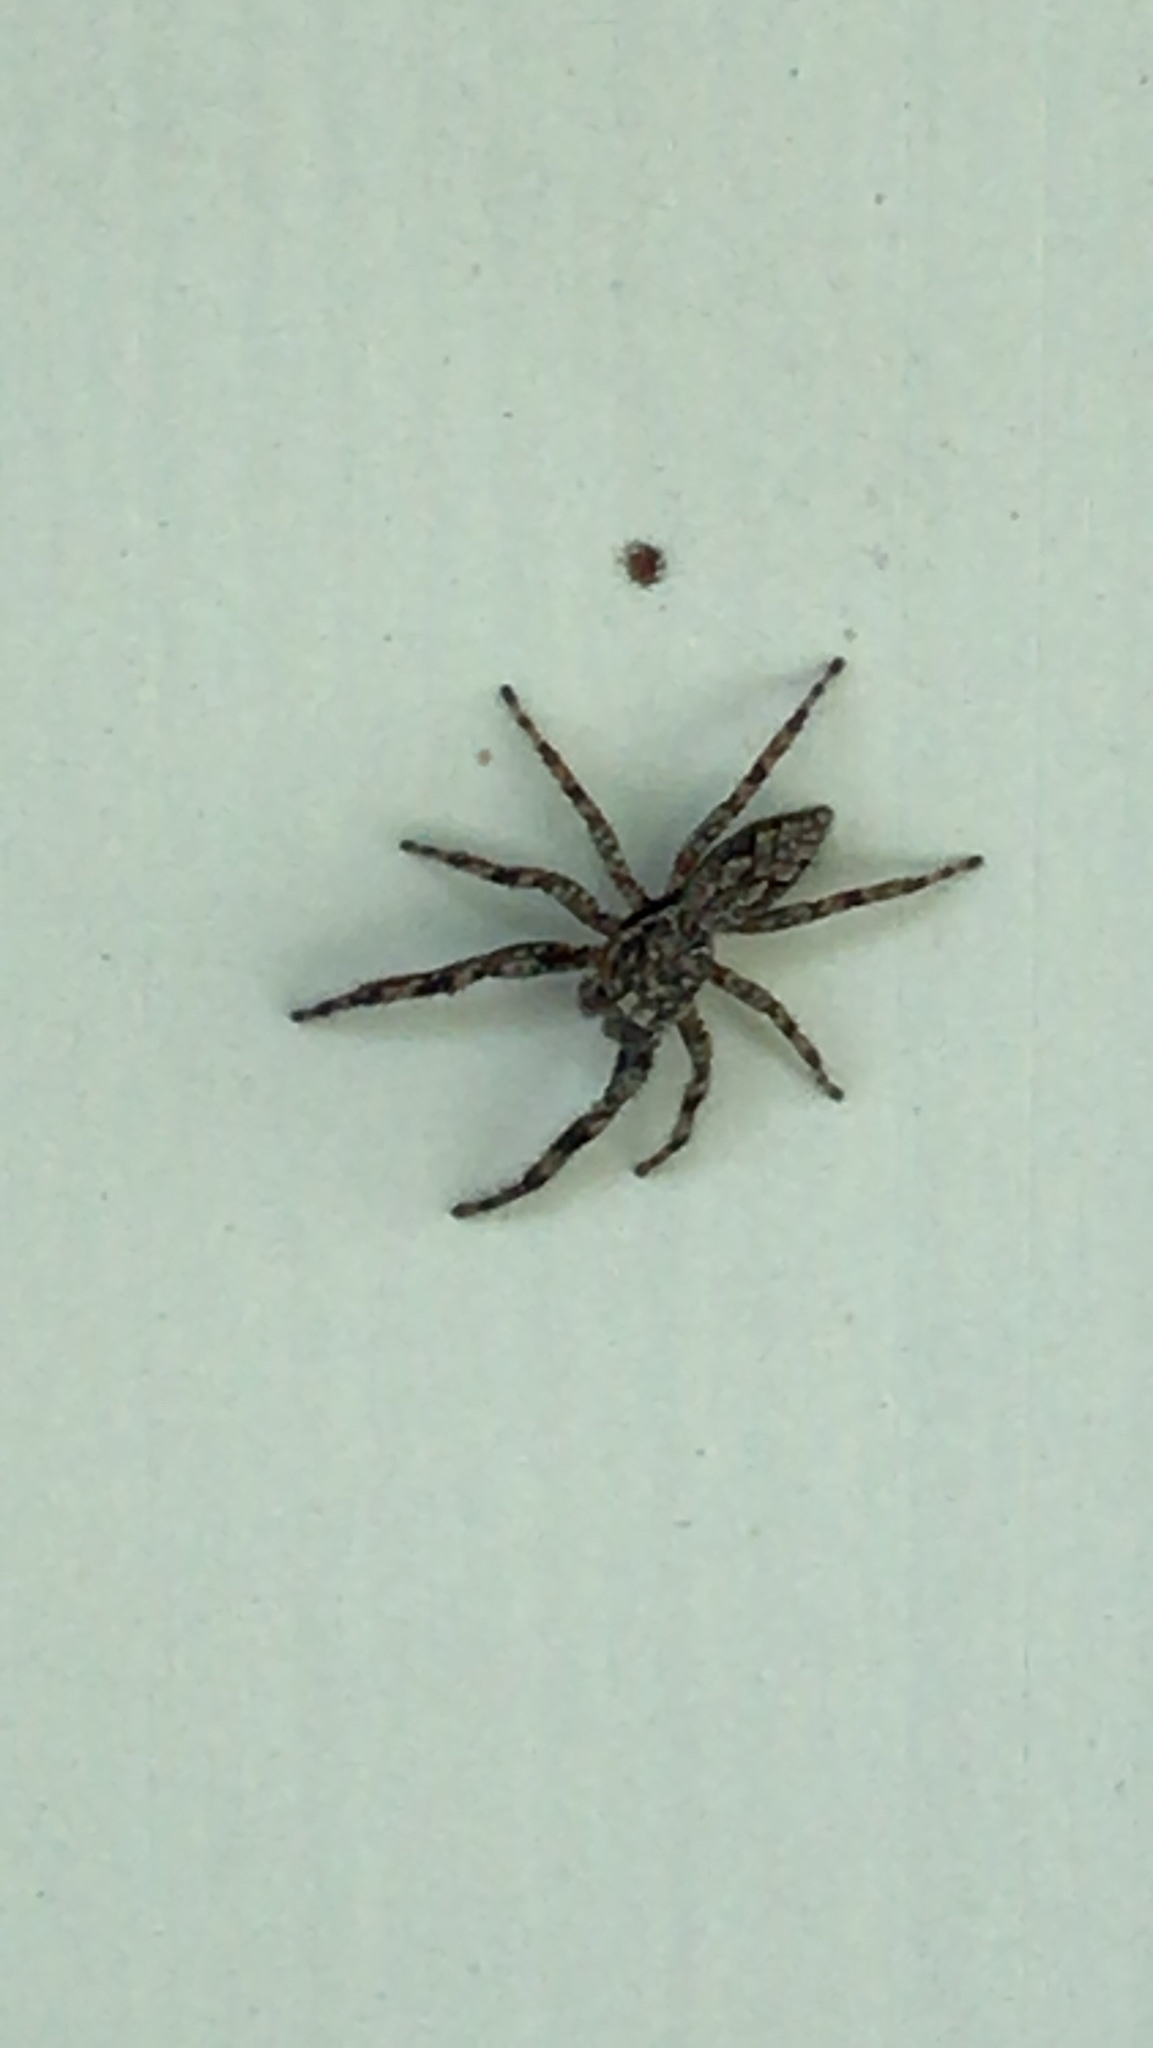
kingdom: Animalia
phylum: Arthropoda
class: Arachnida
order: Araneae
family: Salticidae
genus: Platycryptus
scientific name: Platycryptus undatus
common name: Tan jumping spider
